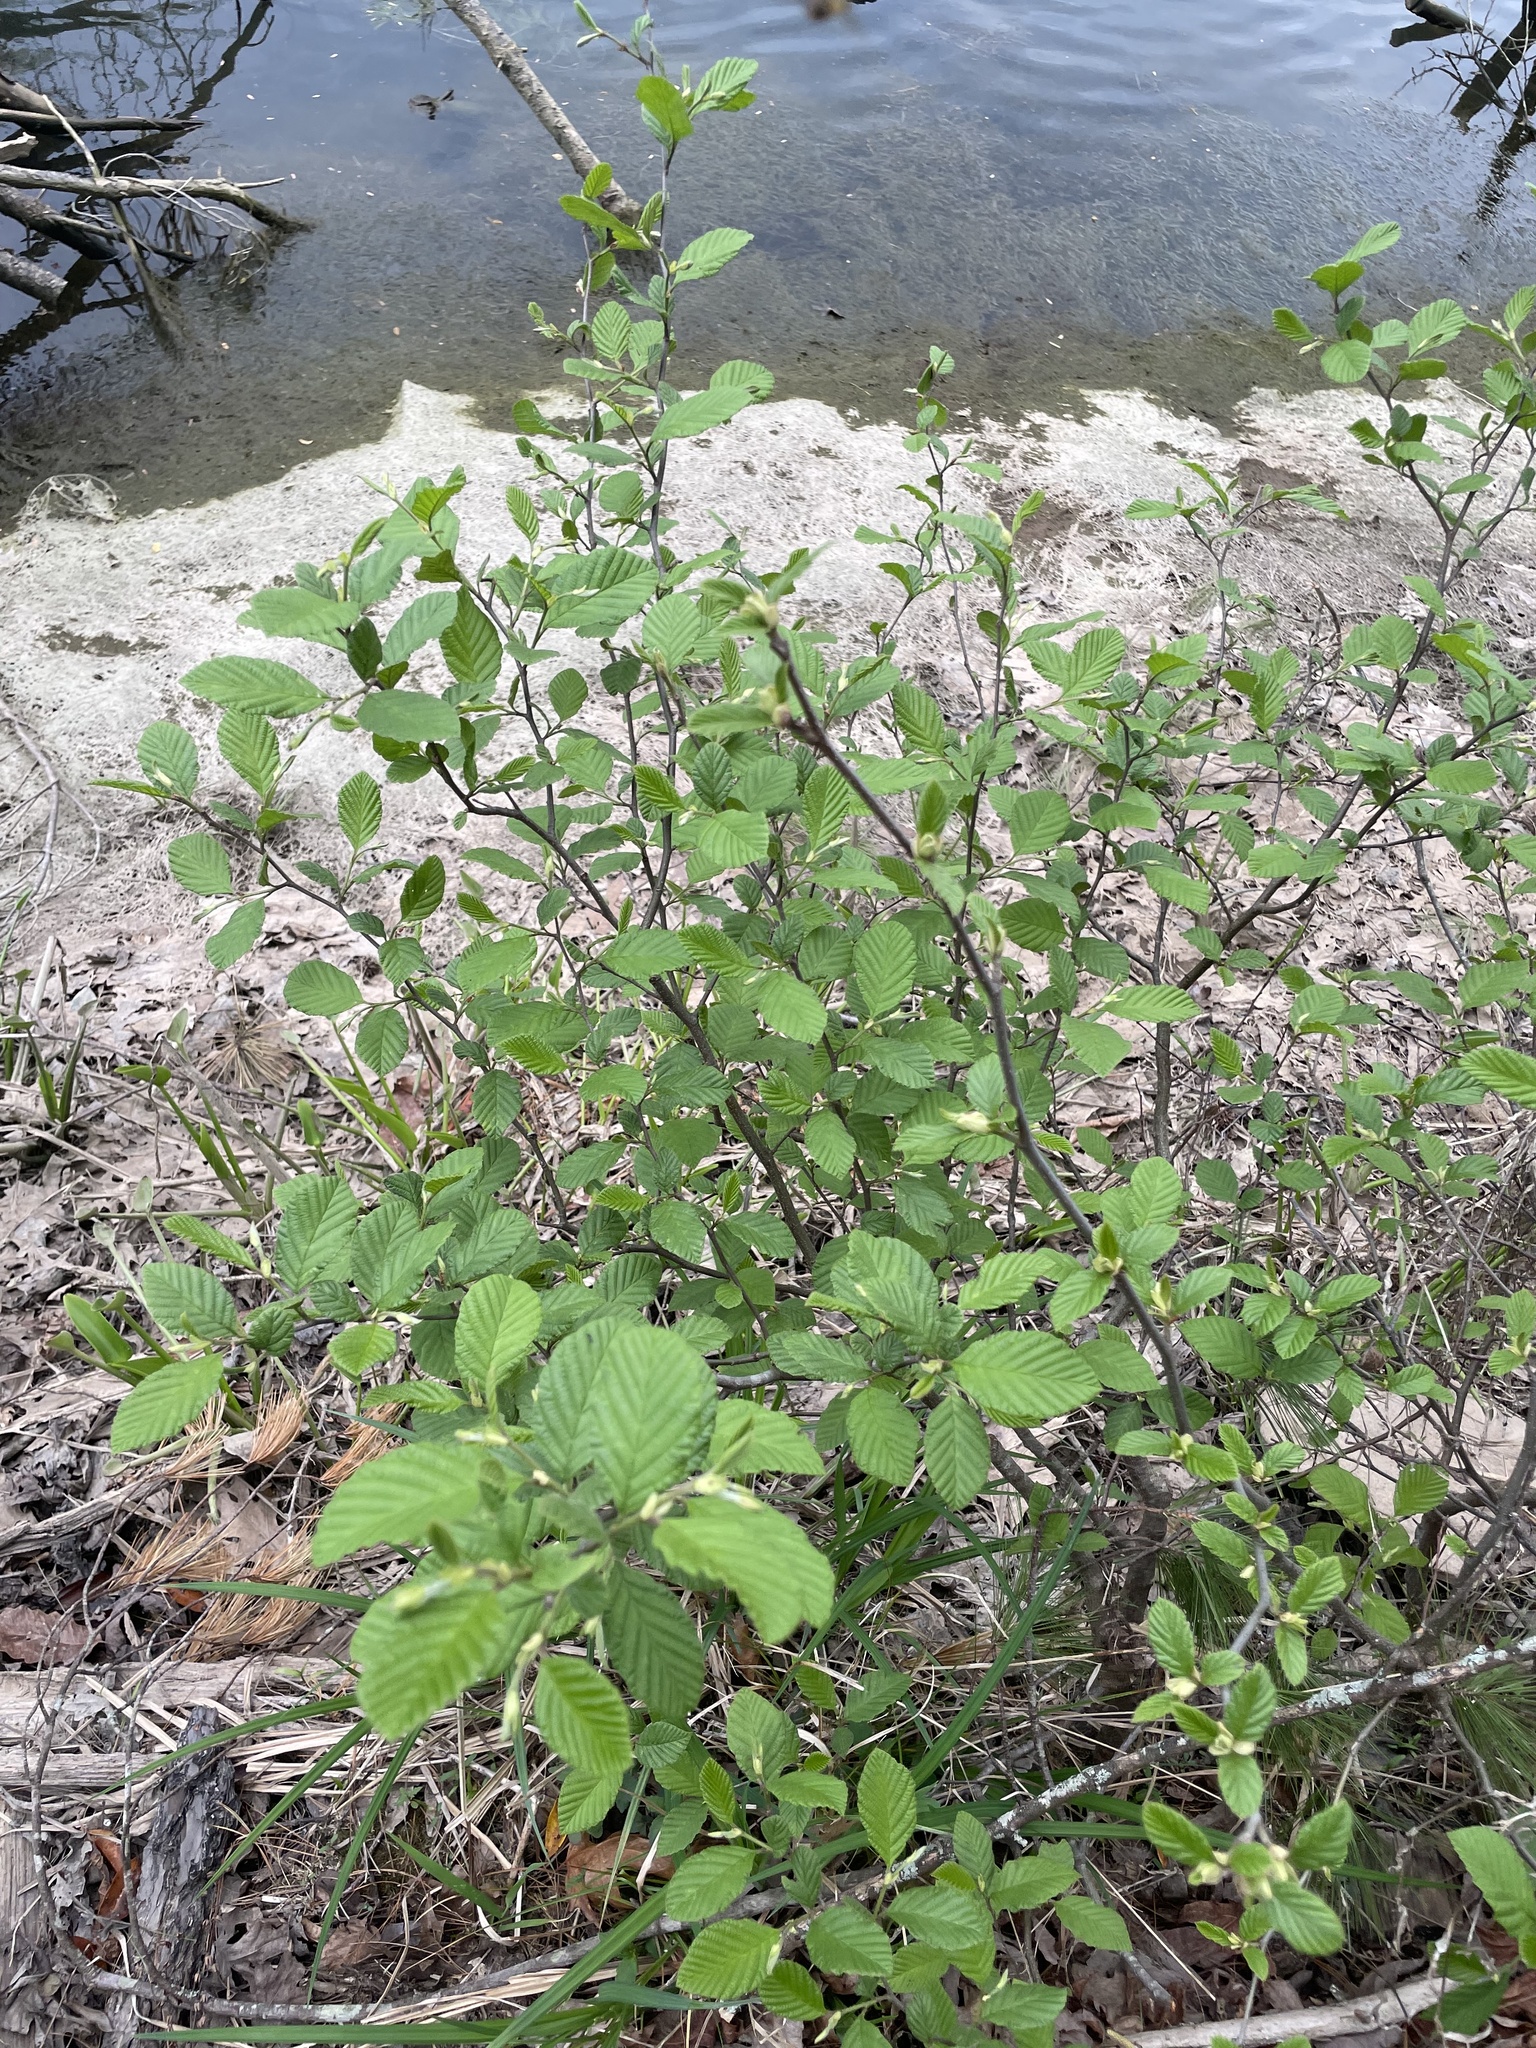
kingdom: Plantae
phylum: Tracheophyta
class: Magnoliopsida
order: Fagales
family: Betulaceae
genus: Alnus
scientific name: Alnus serrulata
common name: Hazel alder
